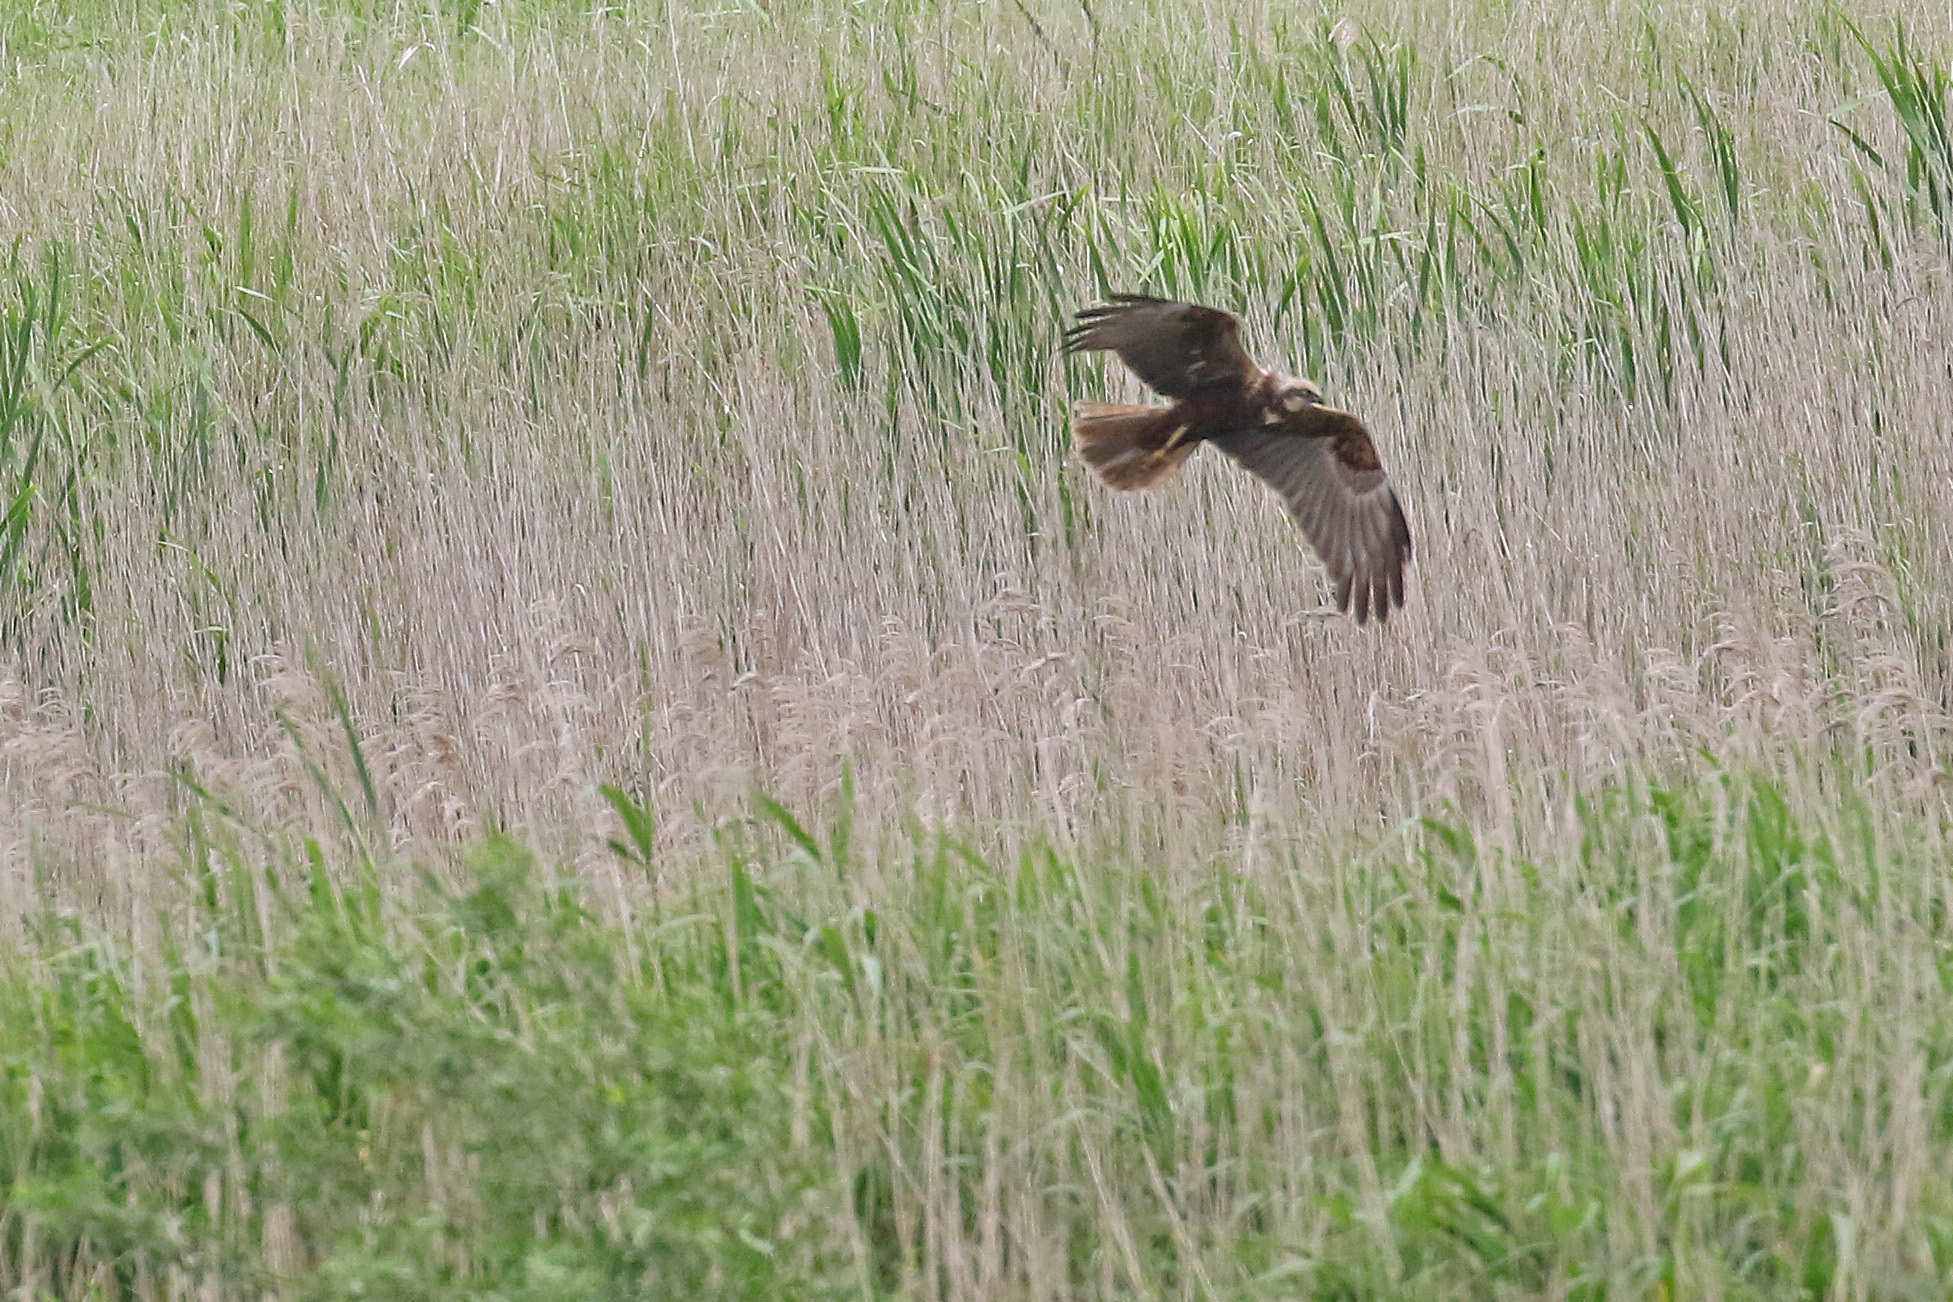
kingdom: Animalia
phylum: Chordata
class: Aves
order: Accipitriformes
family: Accipitridae
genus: Circus
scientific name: Circus aeruginosus
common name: Western marsh harrier
